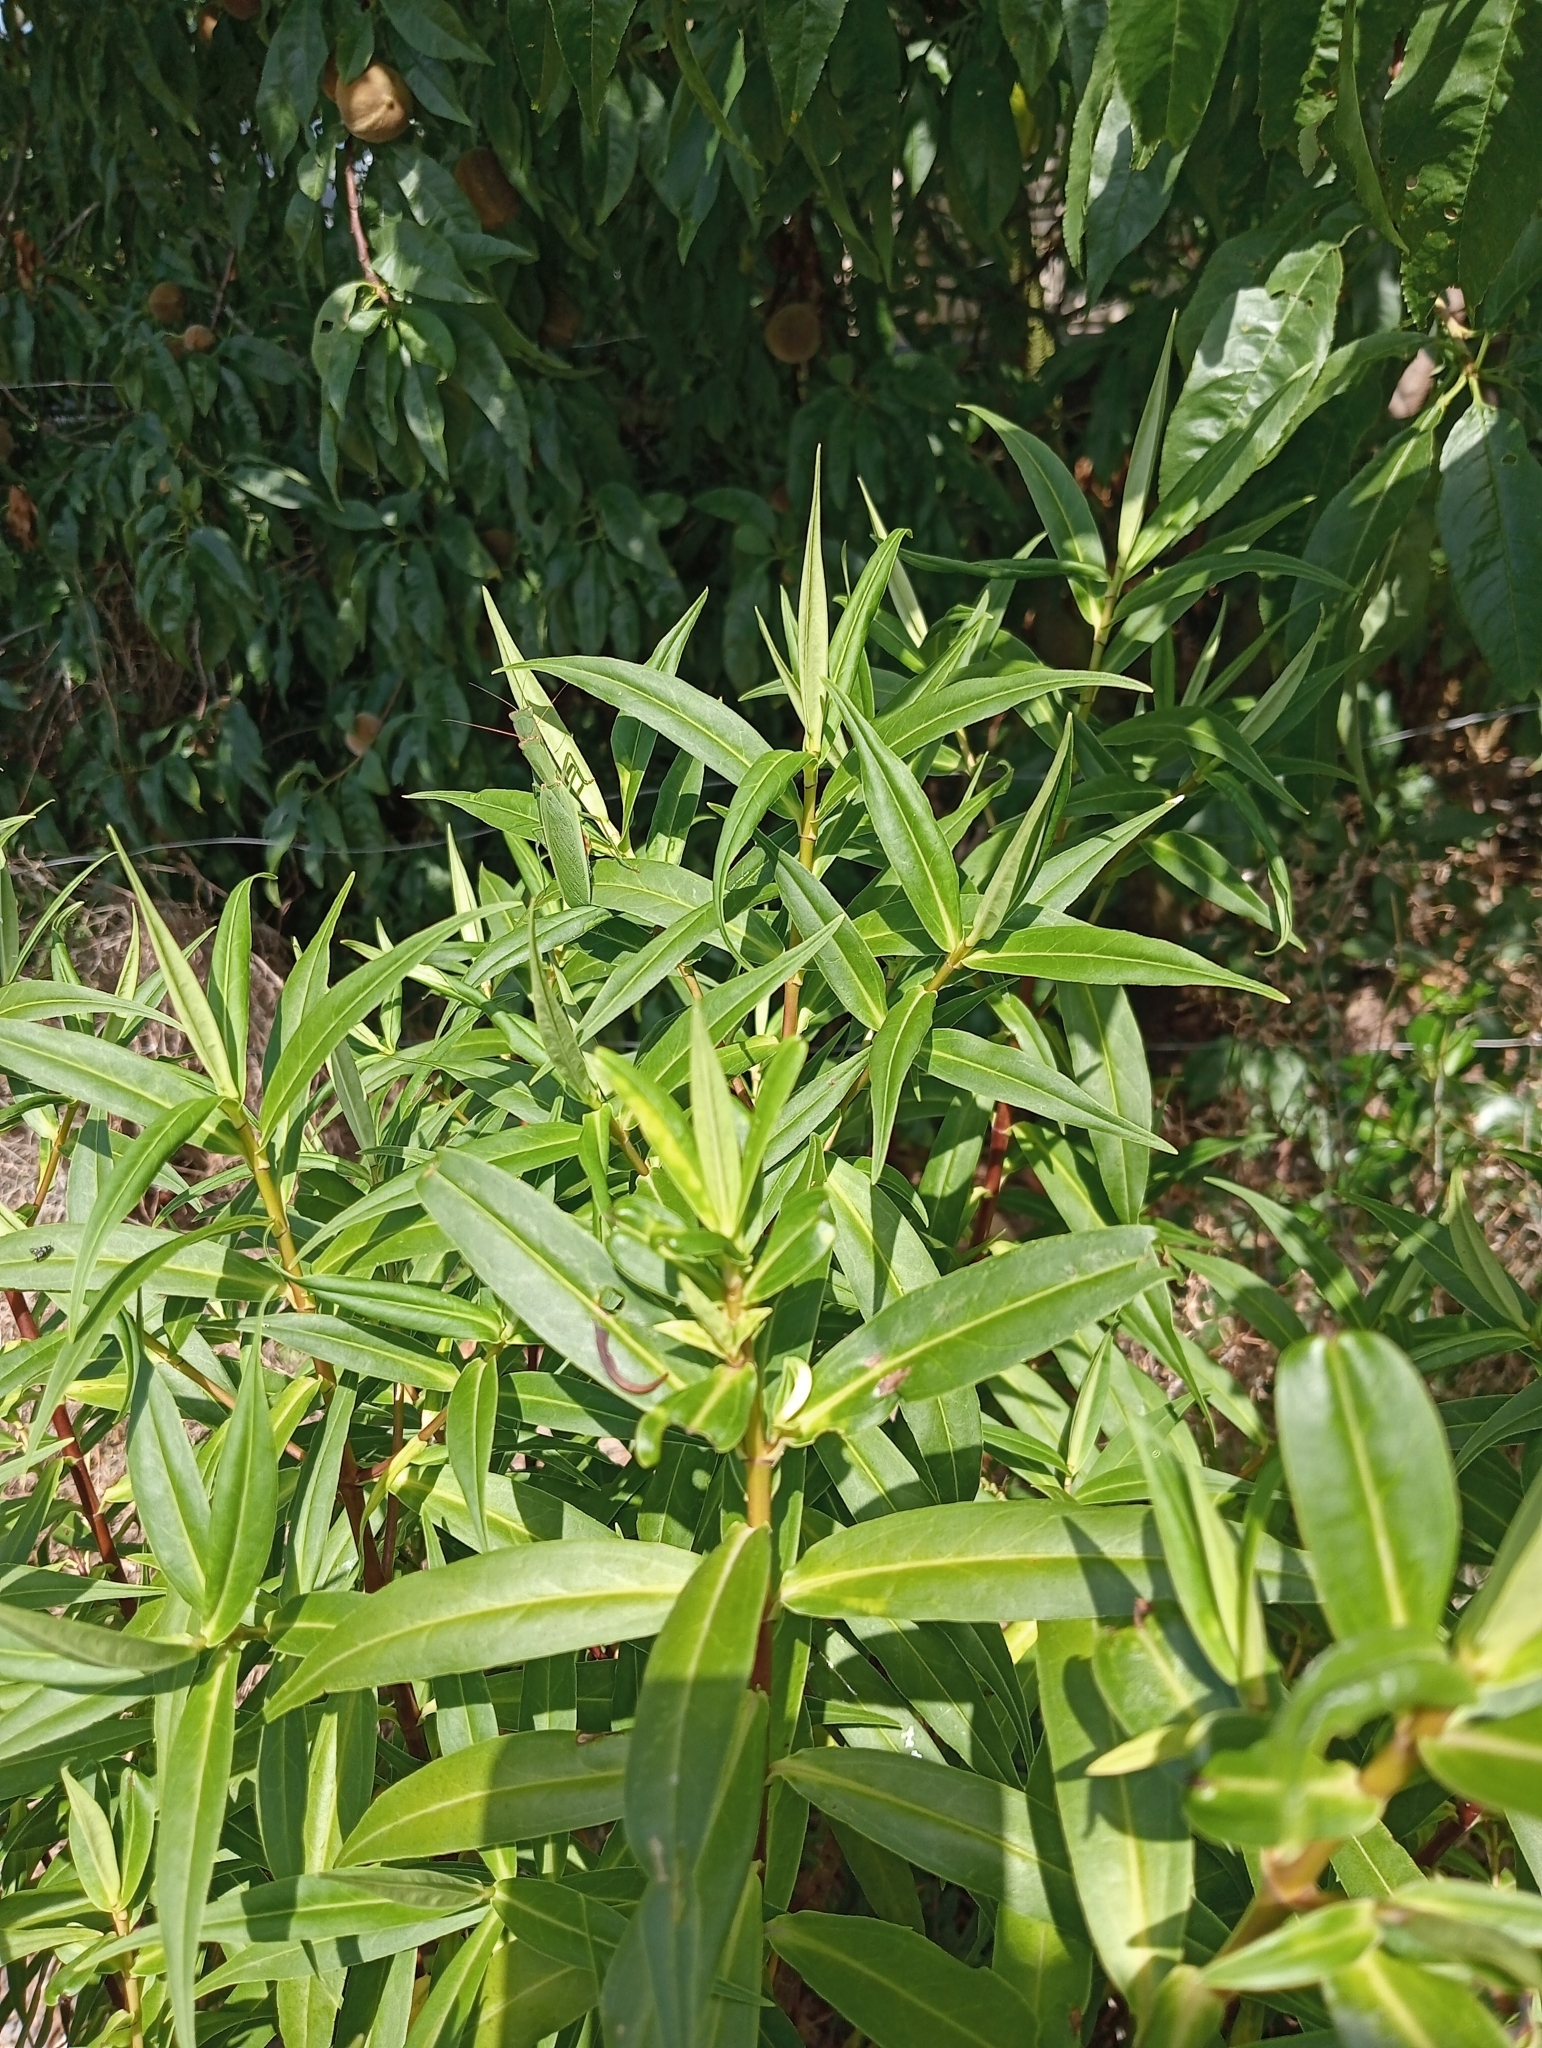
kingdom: Animalia
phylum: Arthropoda
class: Insecta
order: Mantodea
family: Mantidae
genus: Orthodera
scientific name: Orthodera novaezealandiae
